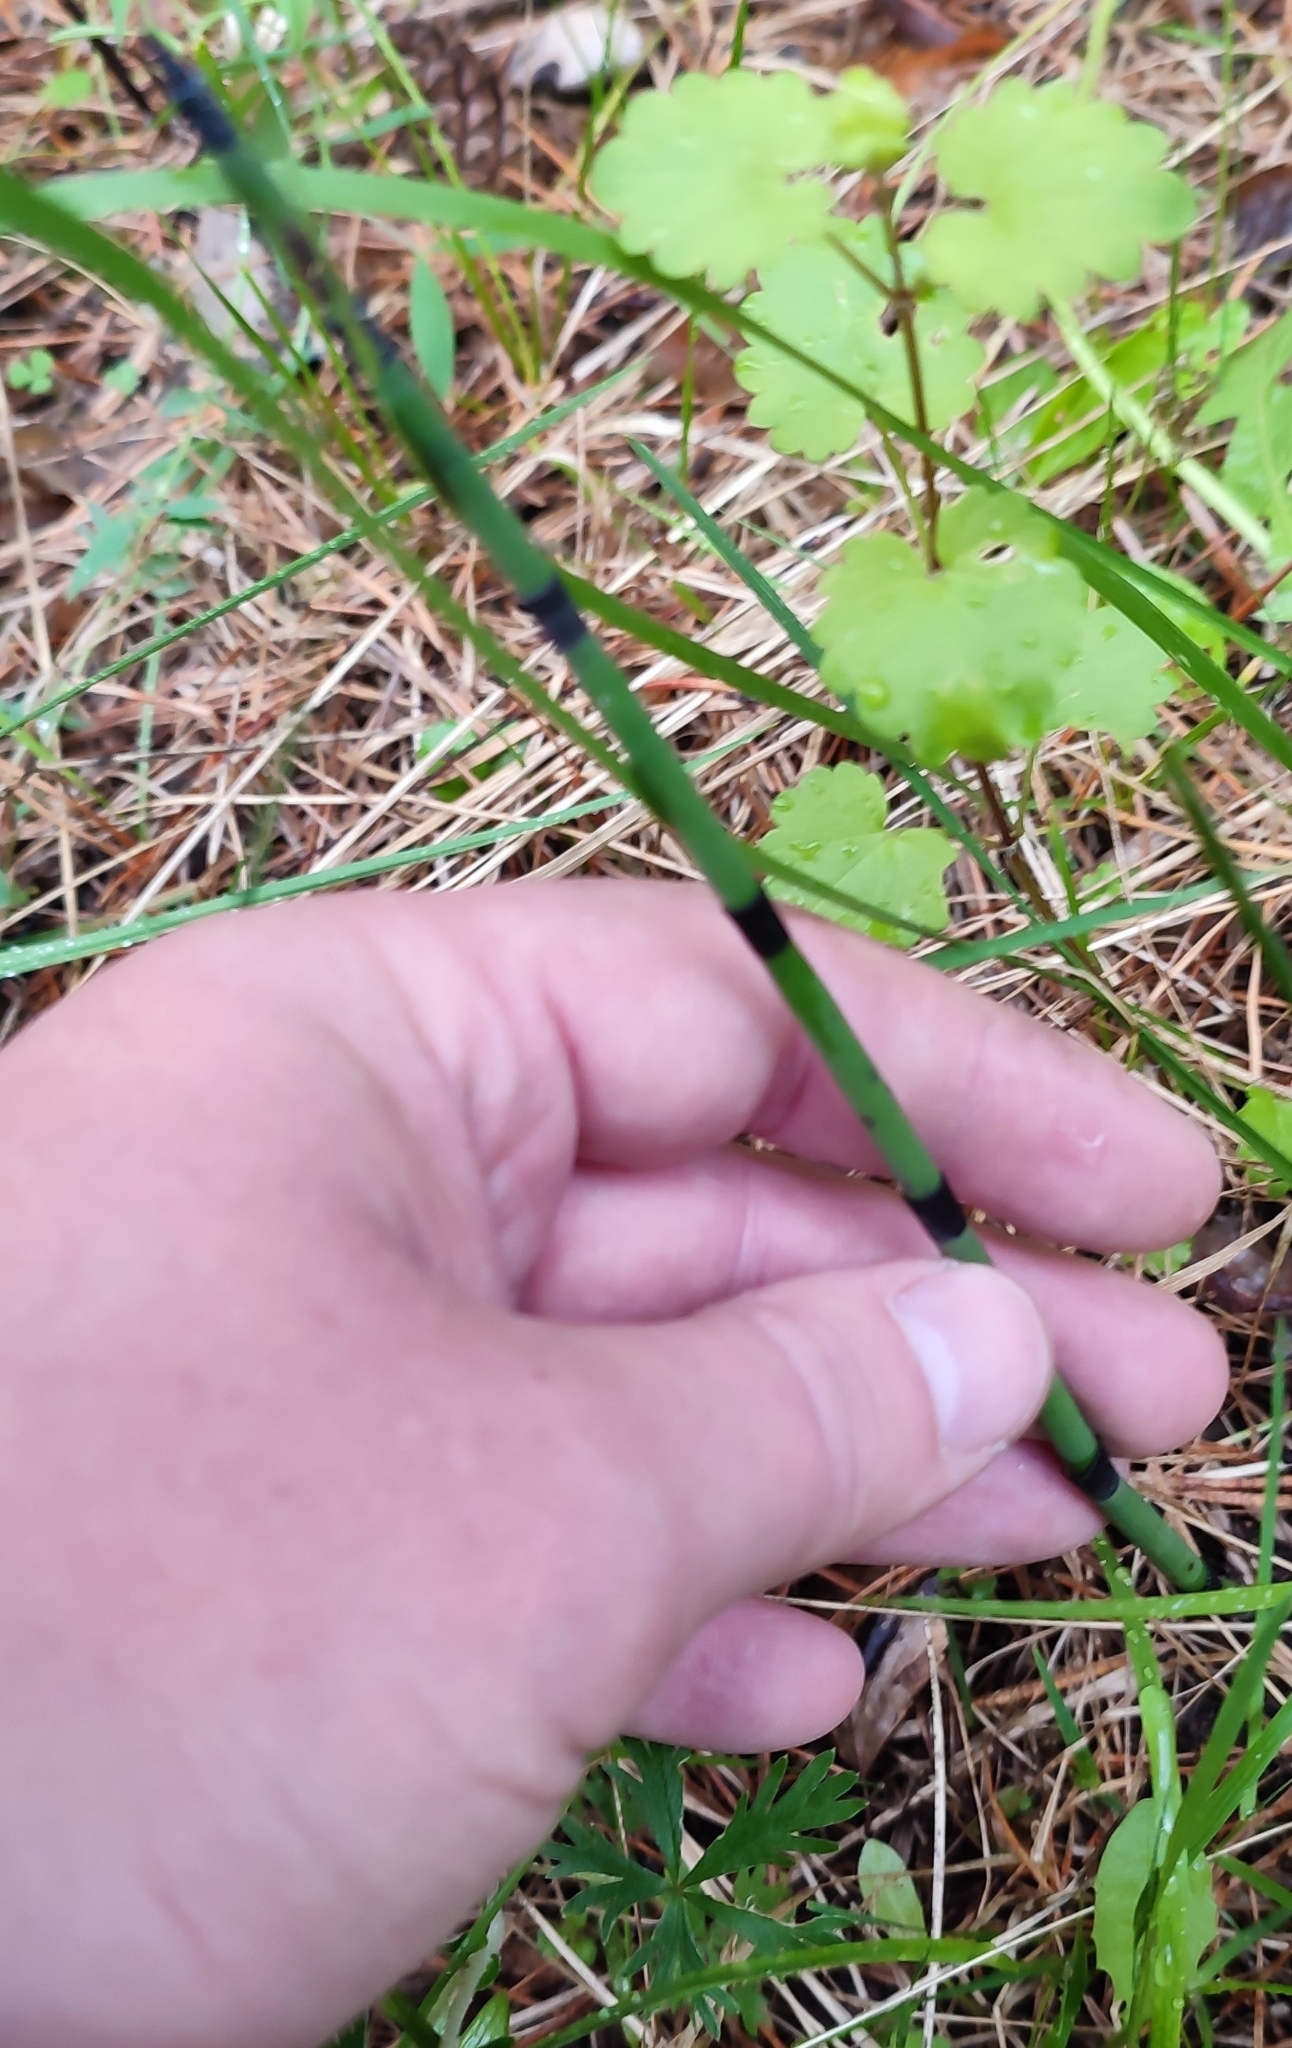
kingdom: Plantae
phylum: Tracheophyta
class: Polypodiopsida
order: Equisetales
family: Equisetaceae
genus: Equisetum
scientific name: Equisetum hyemale
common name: Rough horsetail
